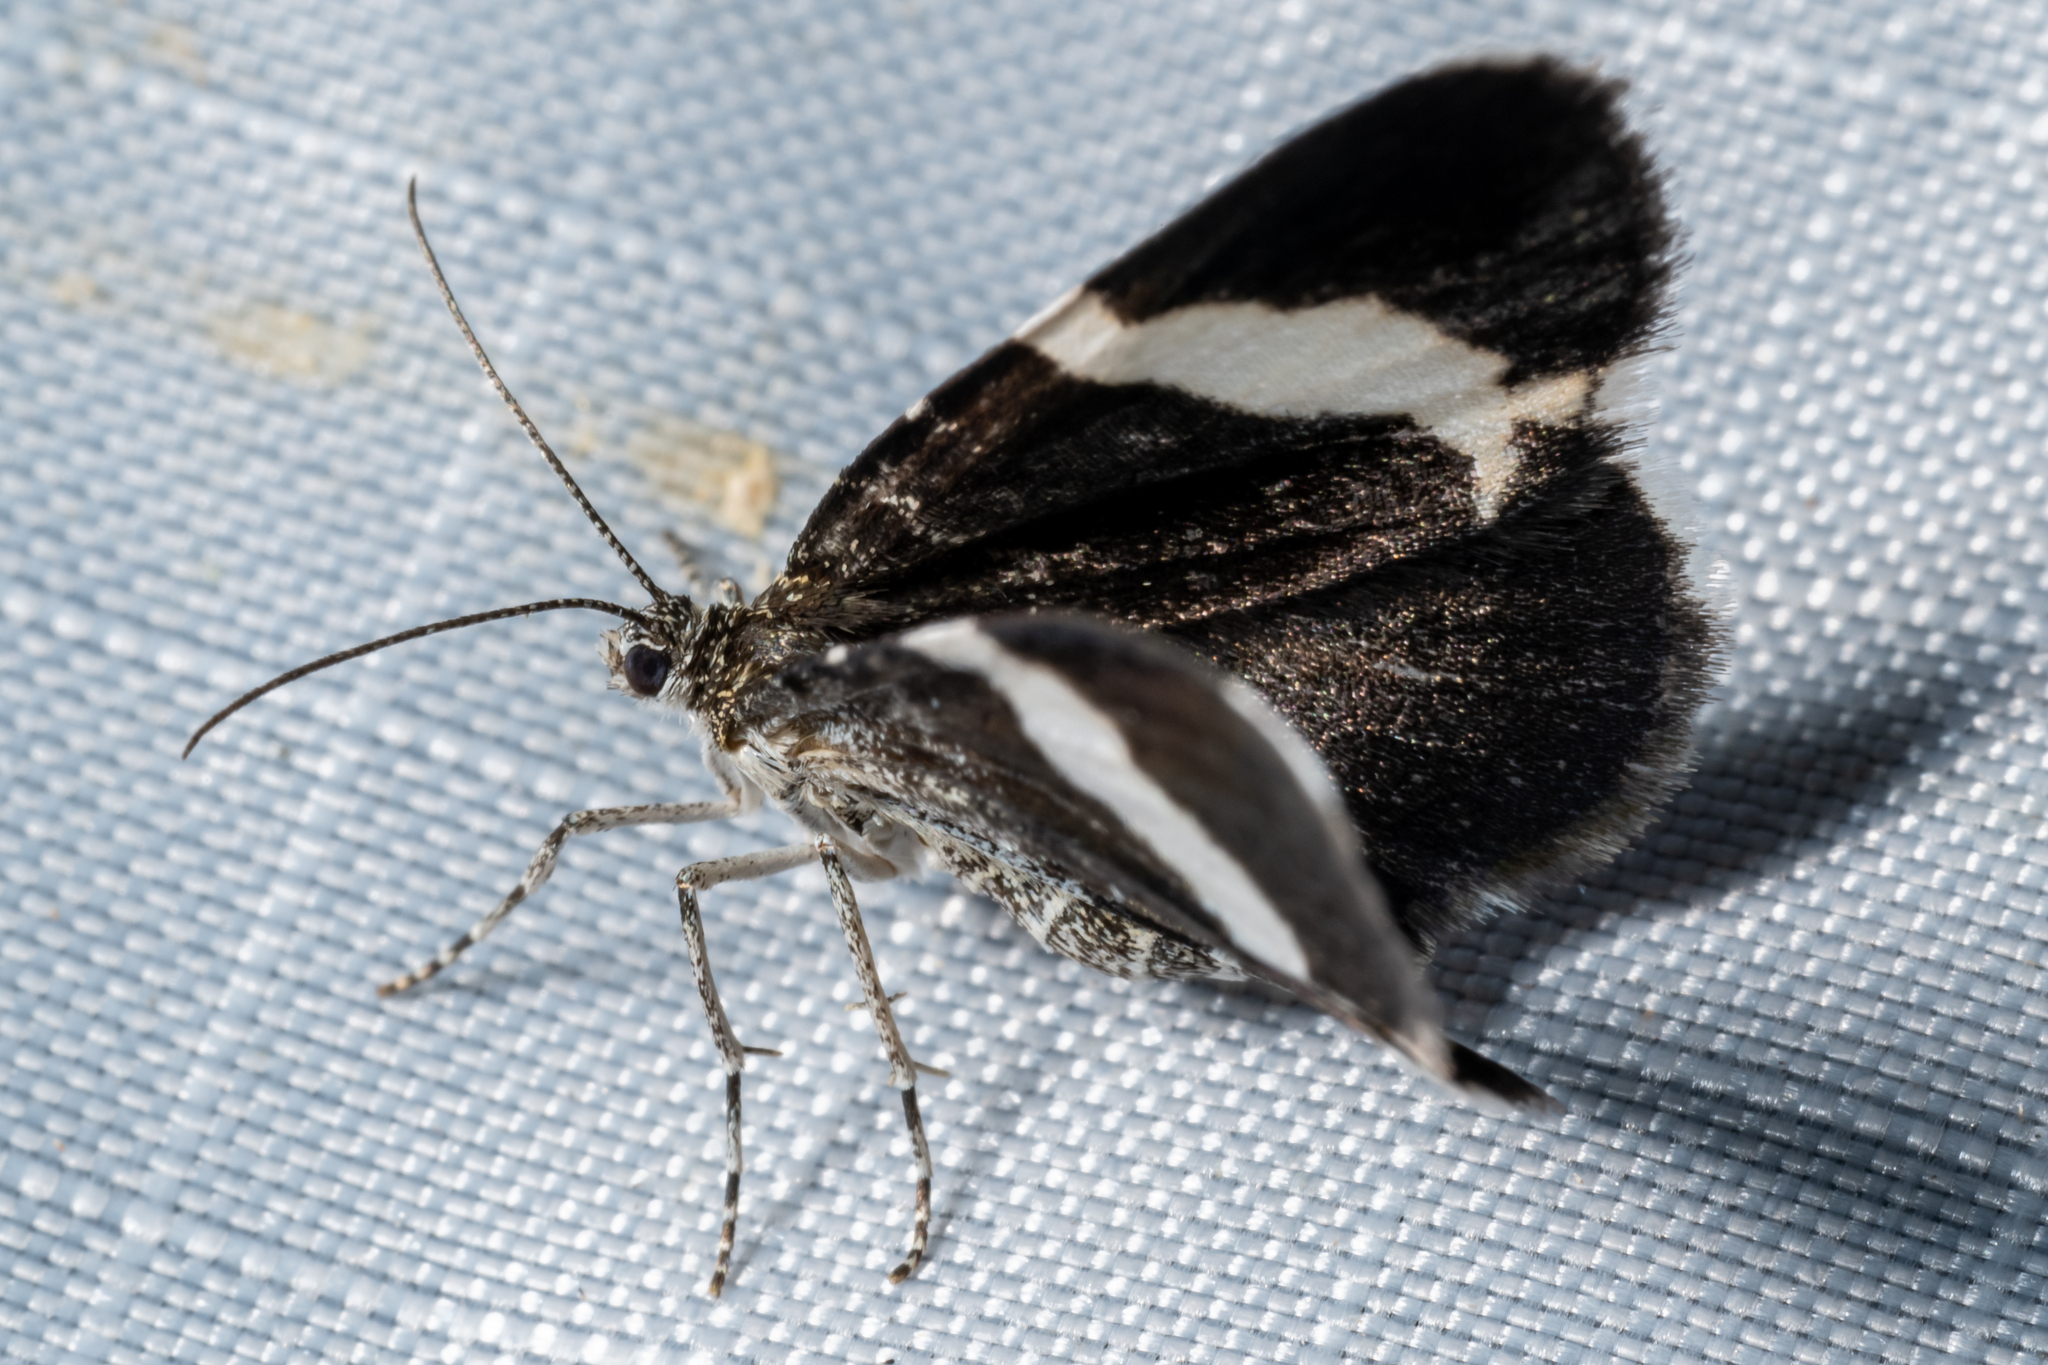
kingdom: Animalia
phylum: Arthropoda
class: Insecta
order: Lepidoptera
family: Geometridae
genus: Trichodezia
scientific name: Trichodezia albovittata
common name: White striped black
